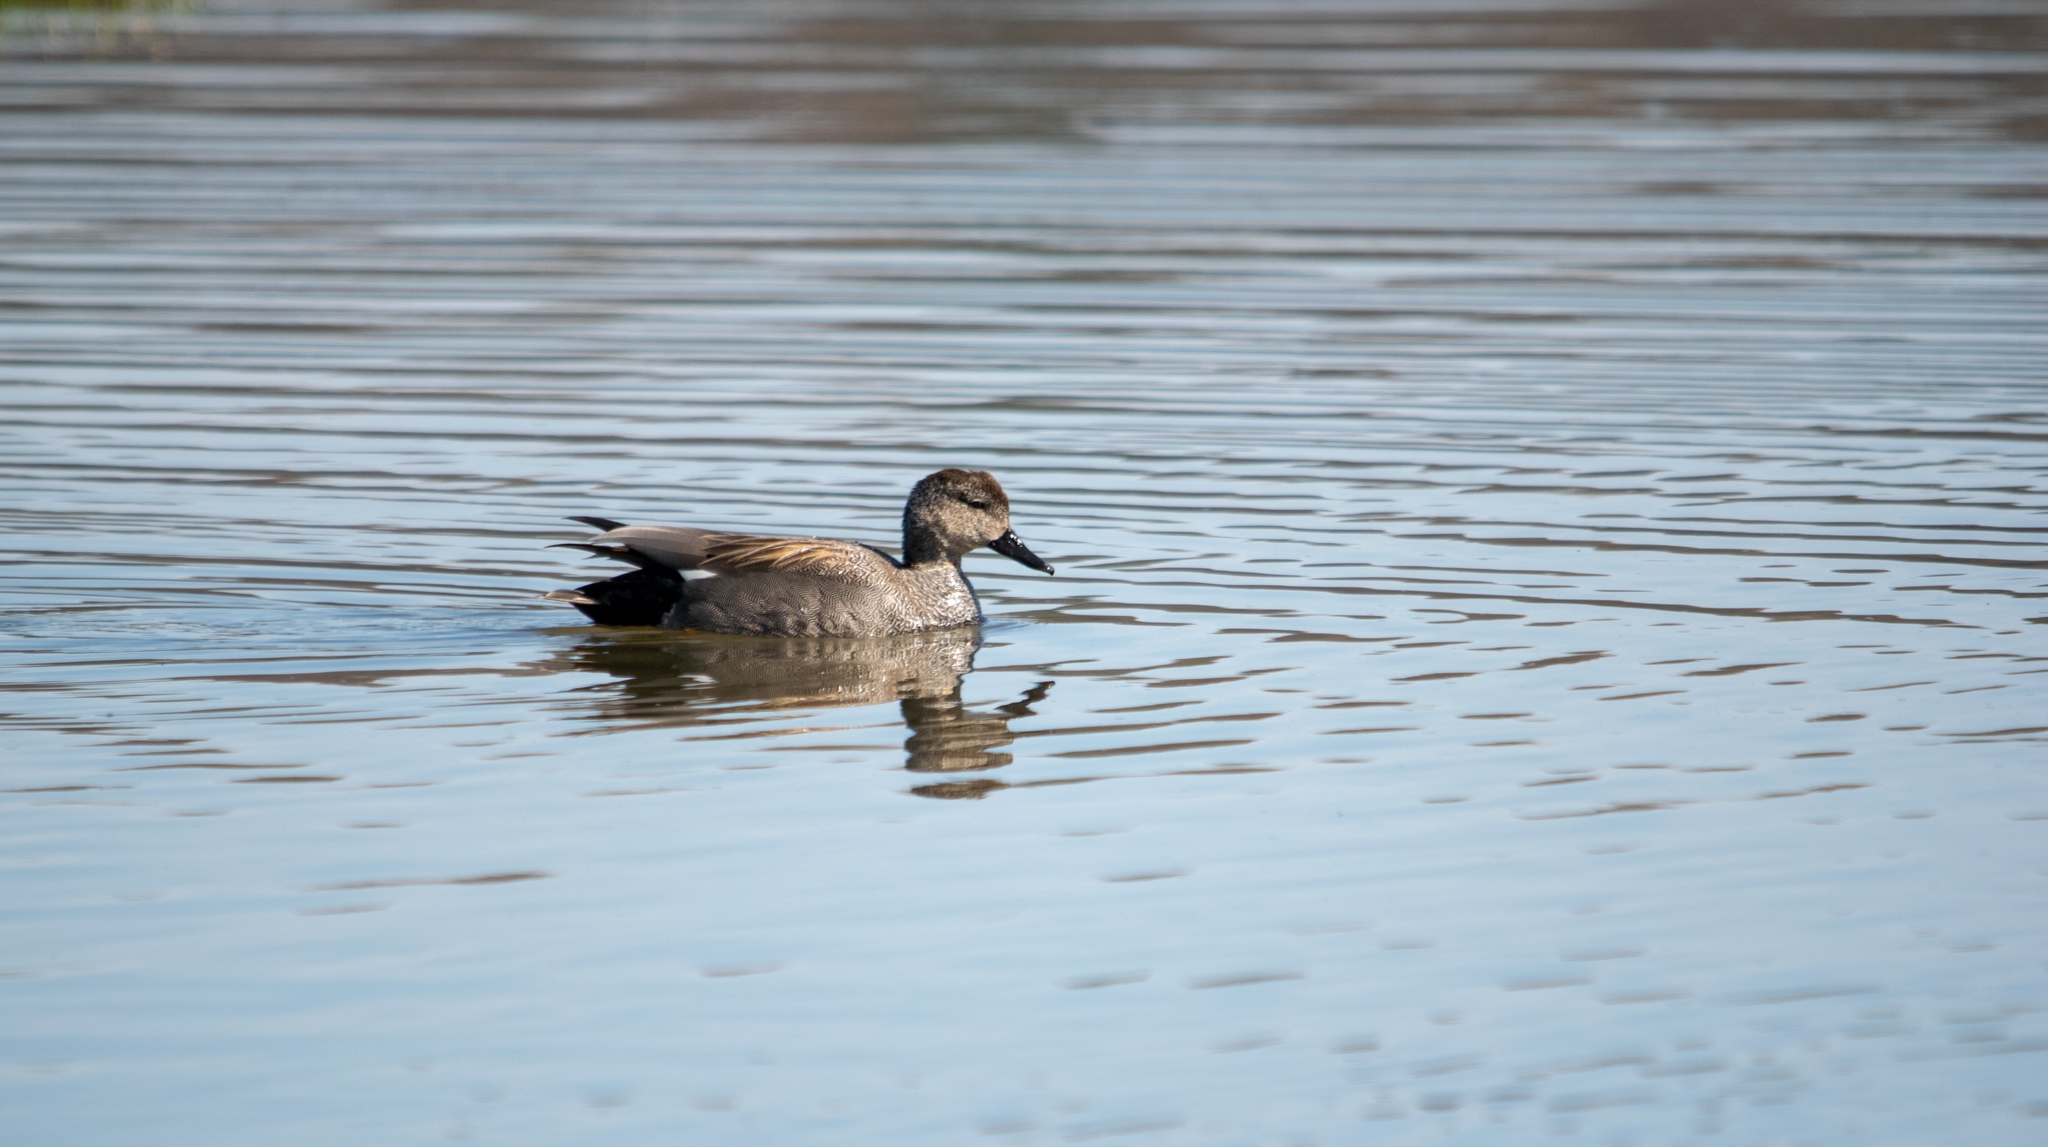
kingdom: Animalia
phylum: Chordata
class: Aves
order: Anseriformes
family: Anatidae
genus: Mareca
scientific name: Mareca strepera
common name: Gadwall
